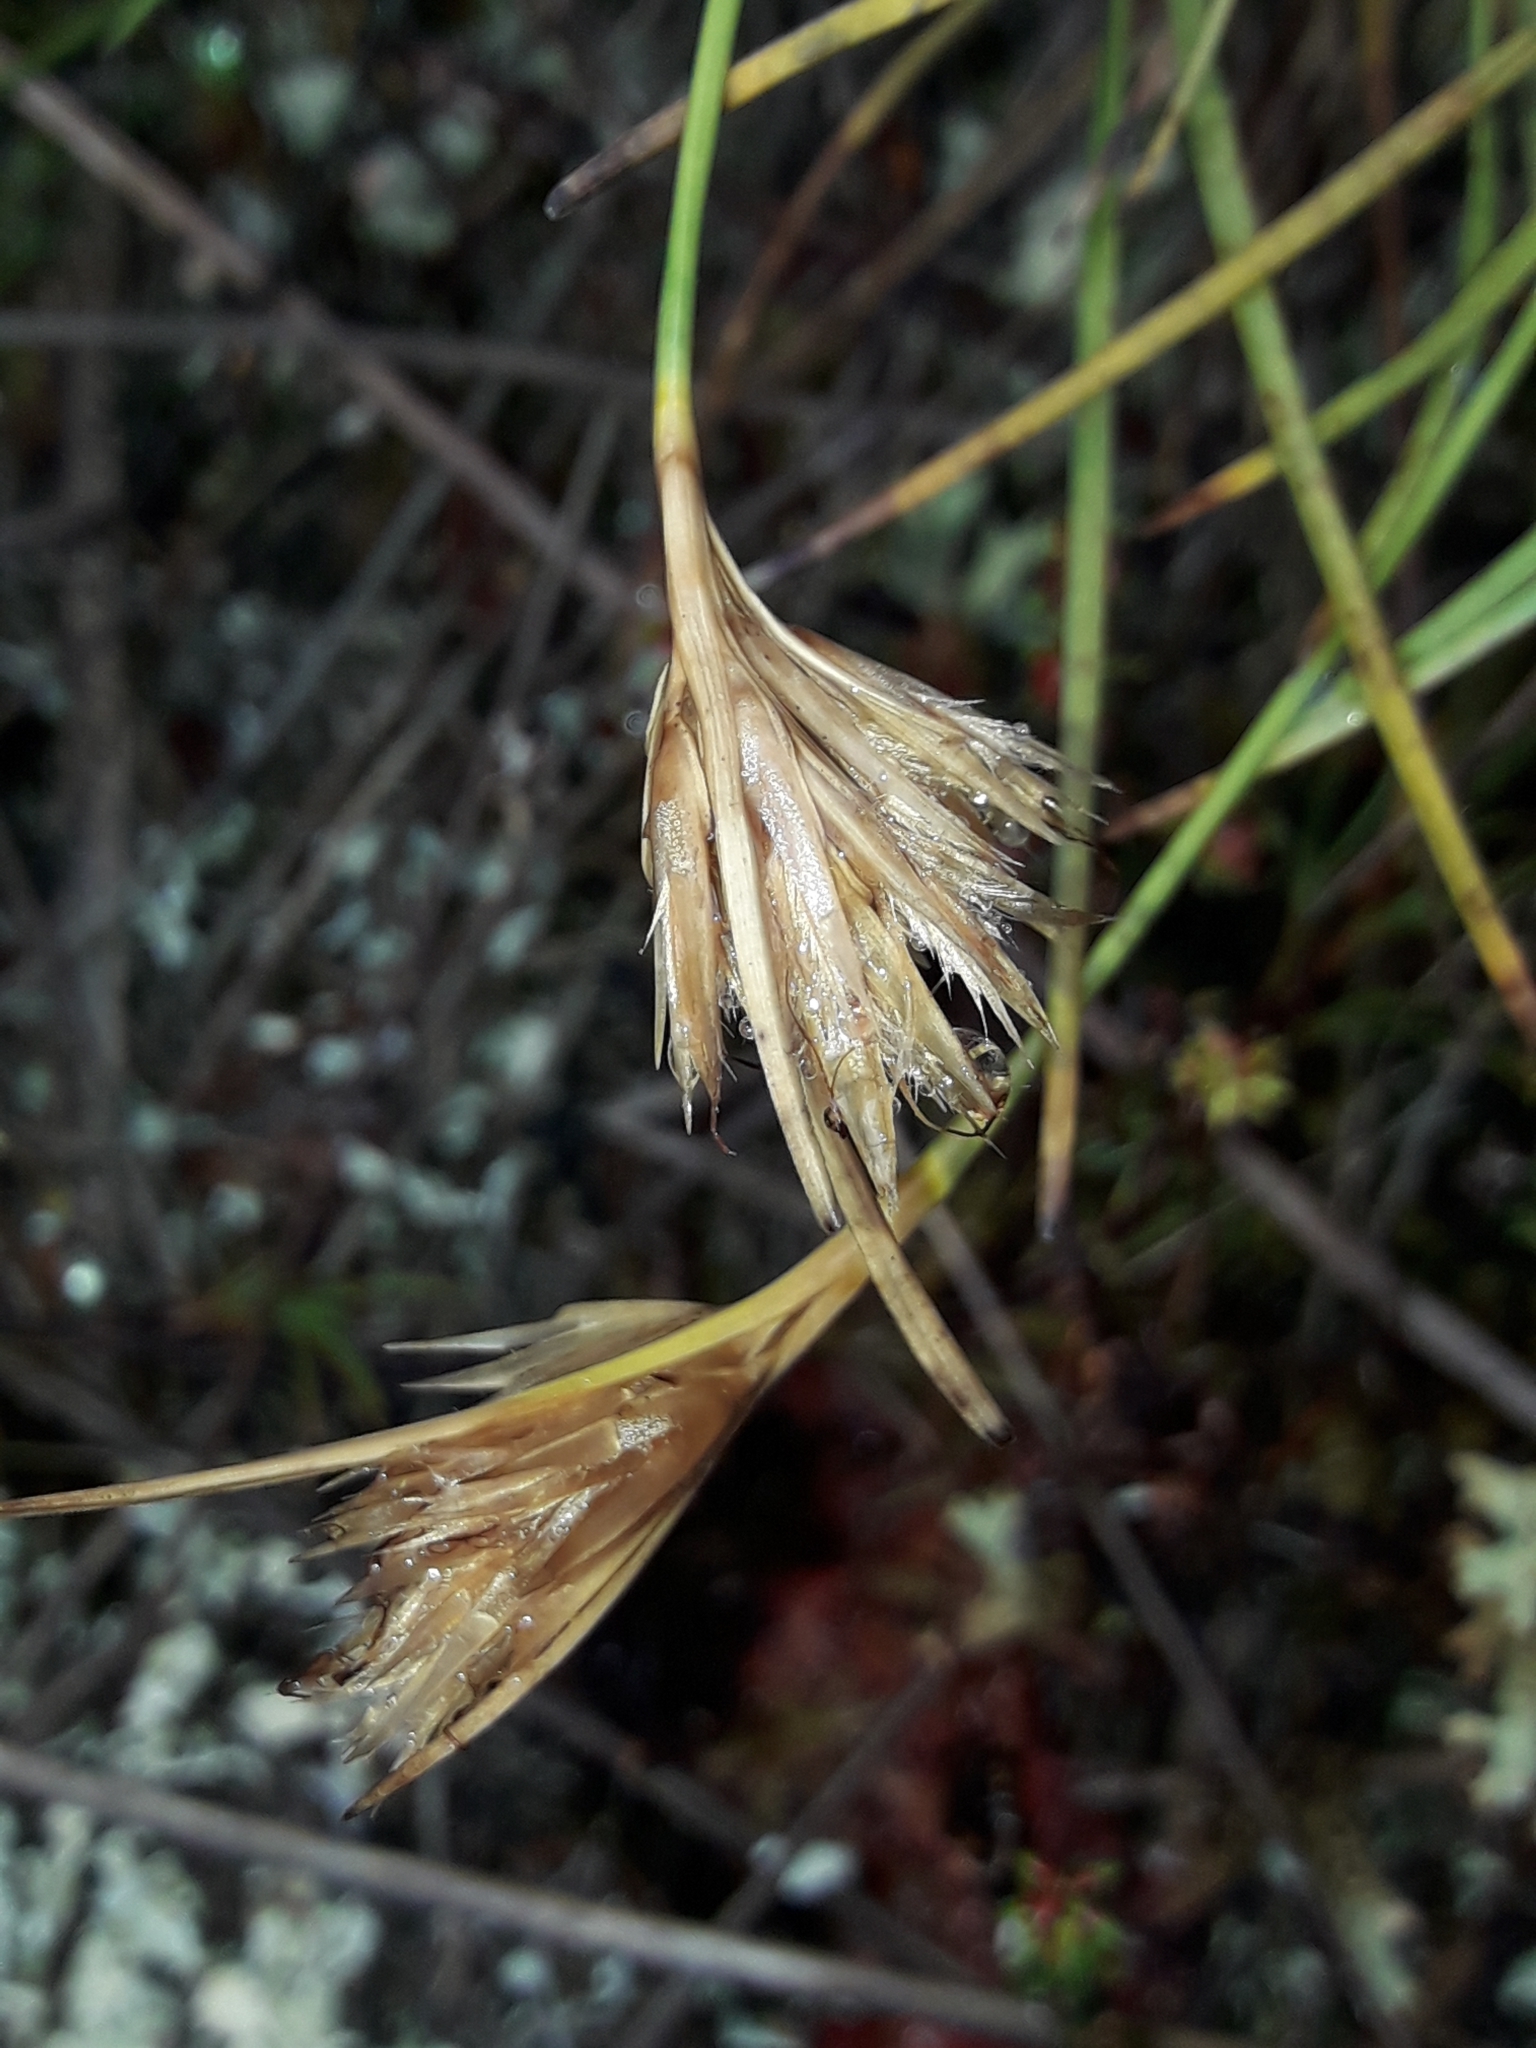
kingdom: Plantae
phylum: Tracheophyta
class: Liliopsida
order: Poales
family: Cyperaceae
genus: Carpha
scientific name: Carpha alpina
